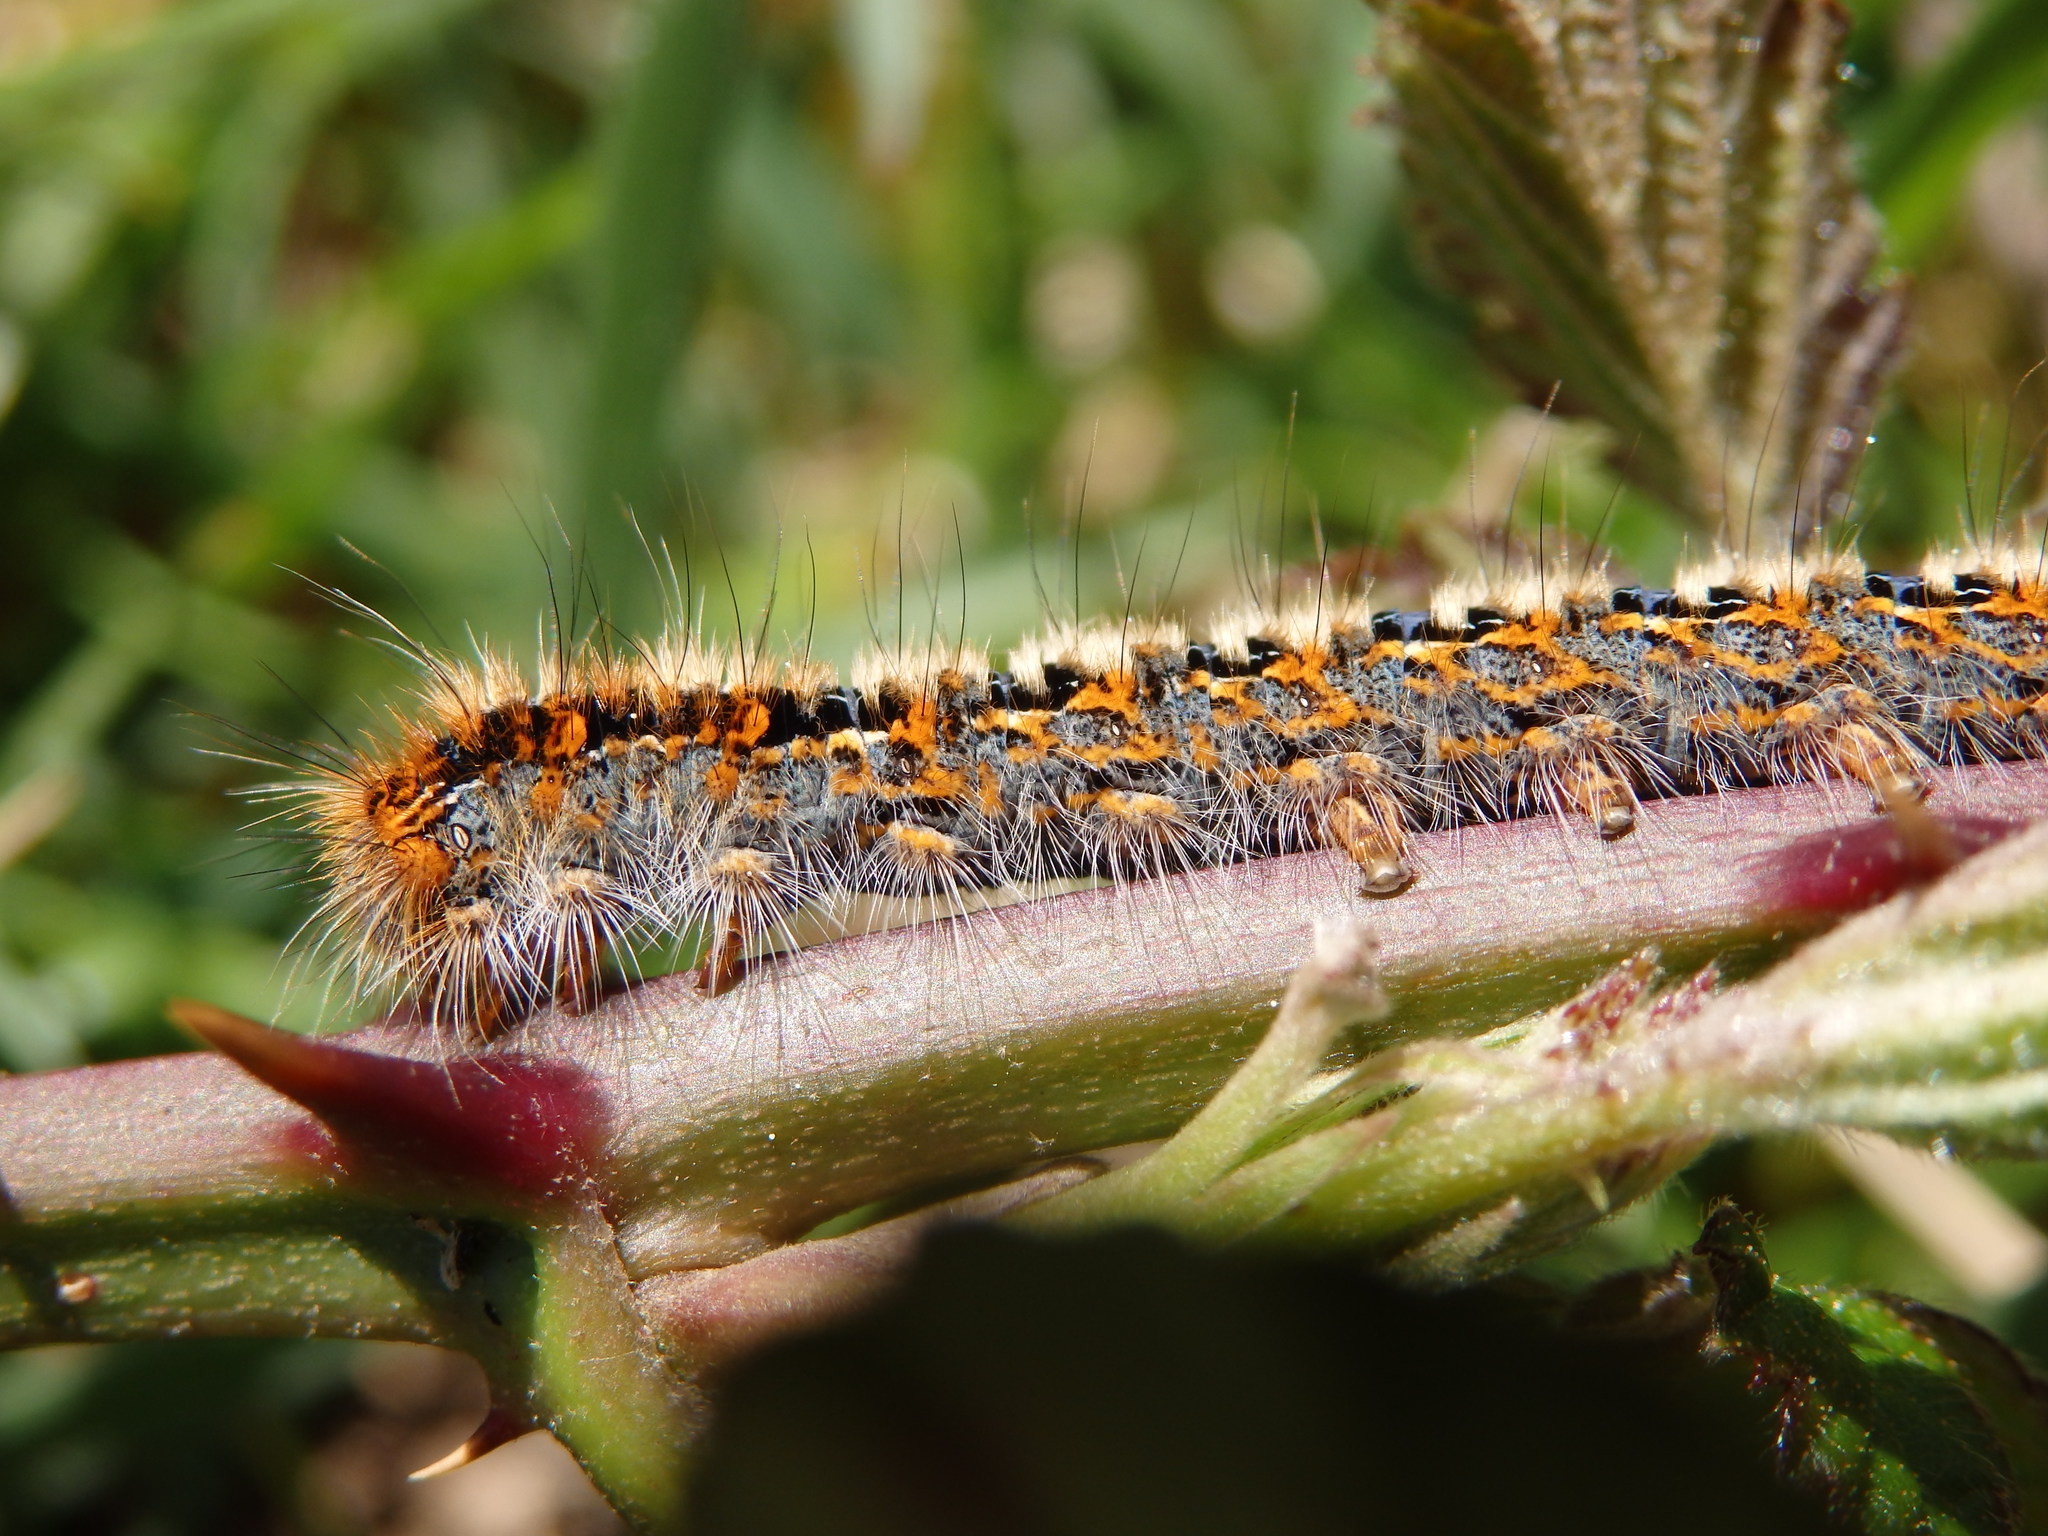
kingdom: Animalia
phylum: Arthropoda
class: Insecta
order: Lepidoptera
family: Lasiocampidae
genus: Lasiocampa
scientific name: Lasiocampa quercus
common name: Oak eggar
